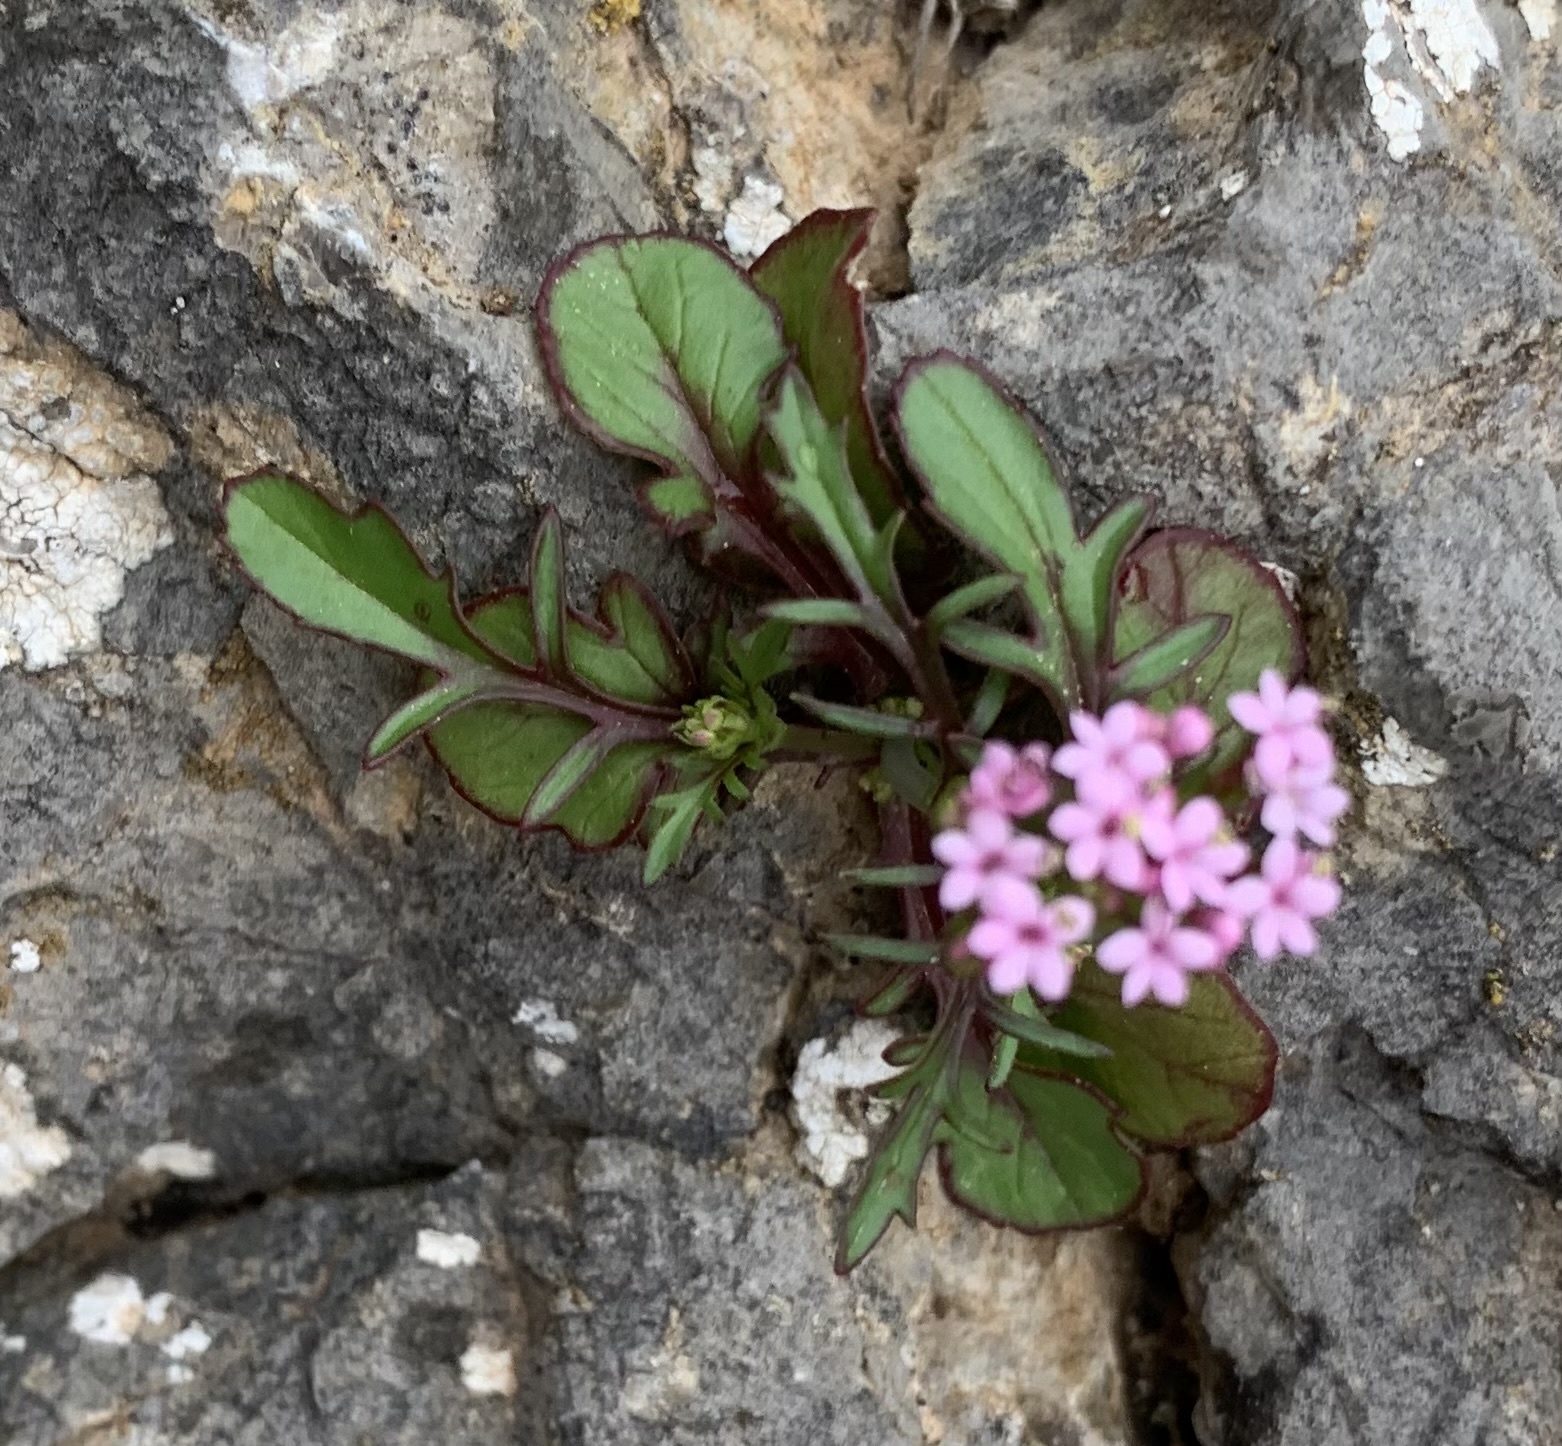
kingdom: Plantae
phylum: Tracheophyta
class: Magnoliopsida
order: Dipsacales
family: Caprifoliaceae
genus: Centranthus
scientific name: Centranthus calcitrapae
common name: Annual valerian
